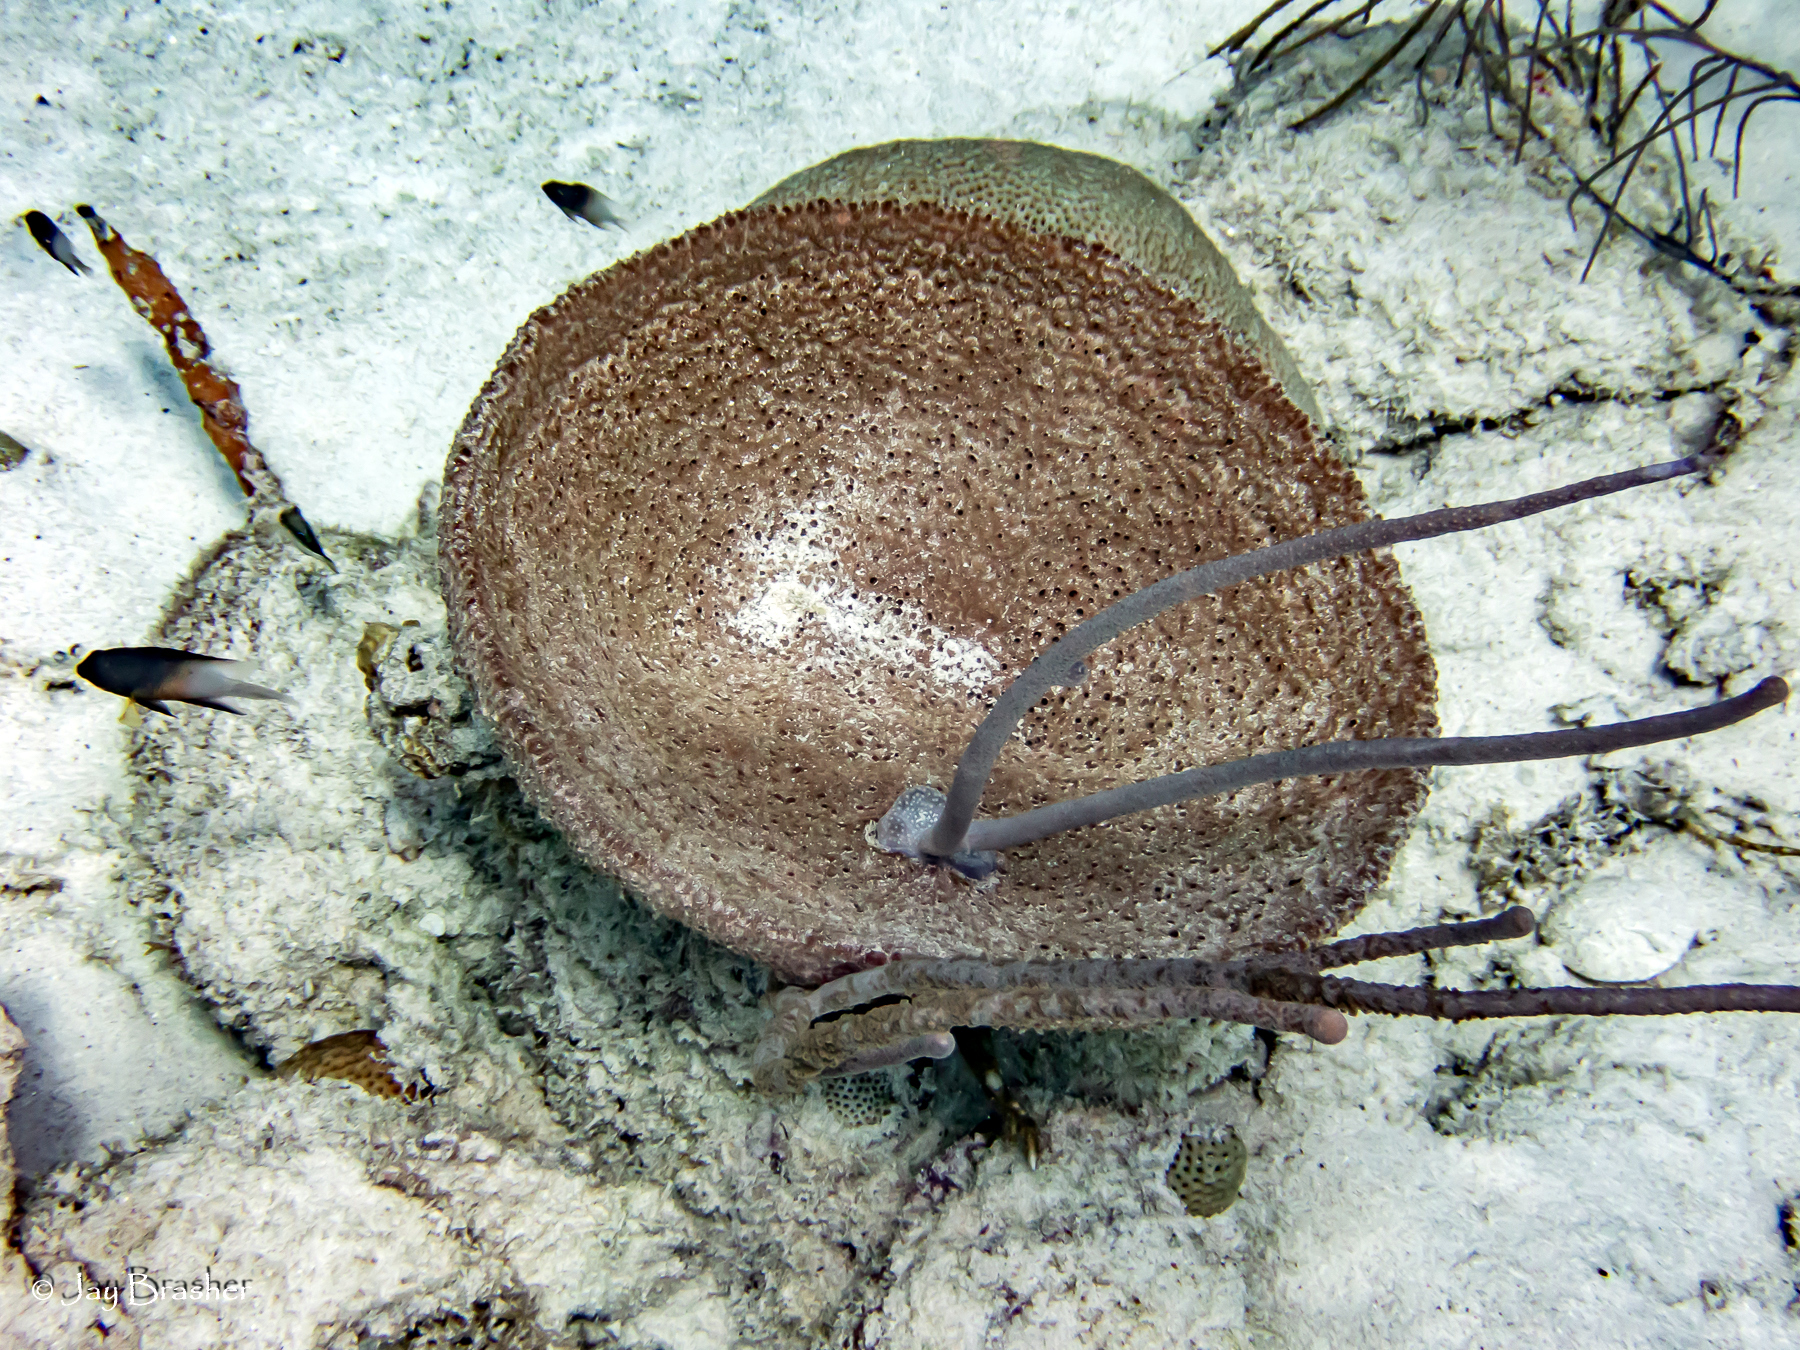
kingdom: Animalia
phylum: Chordata
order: Perciformes
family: Pomacentridae
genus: Stegastes
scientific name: Stegastes partitus
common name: Bicolor damselfish
